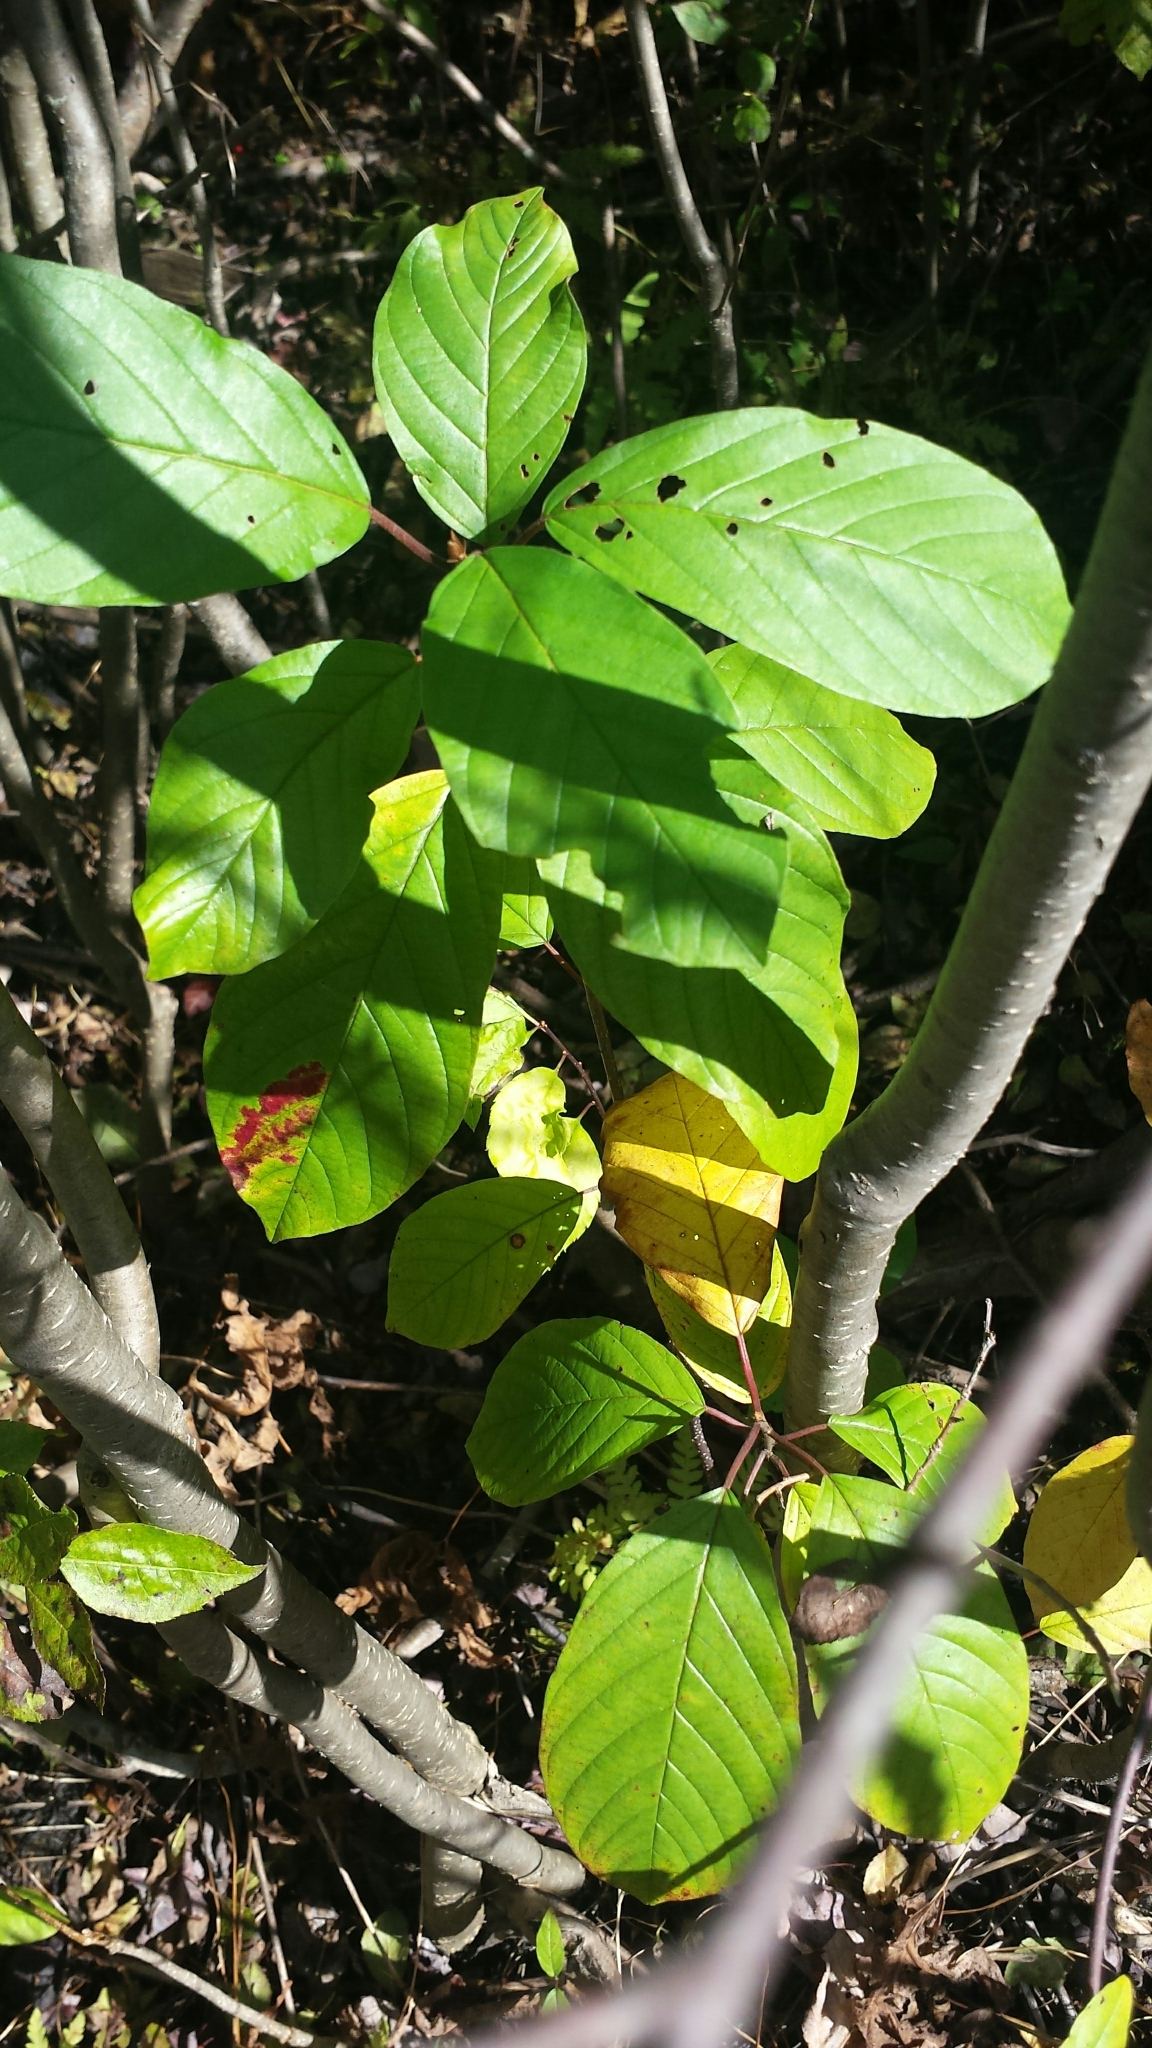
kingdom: Plantae
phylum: Tracheophyta
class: Magnoliopsida
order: Rosales
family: Rhamnaceae
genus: Frangula
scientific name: Frangula alnus
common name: Alder buckthorn
